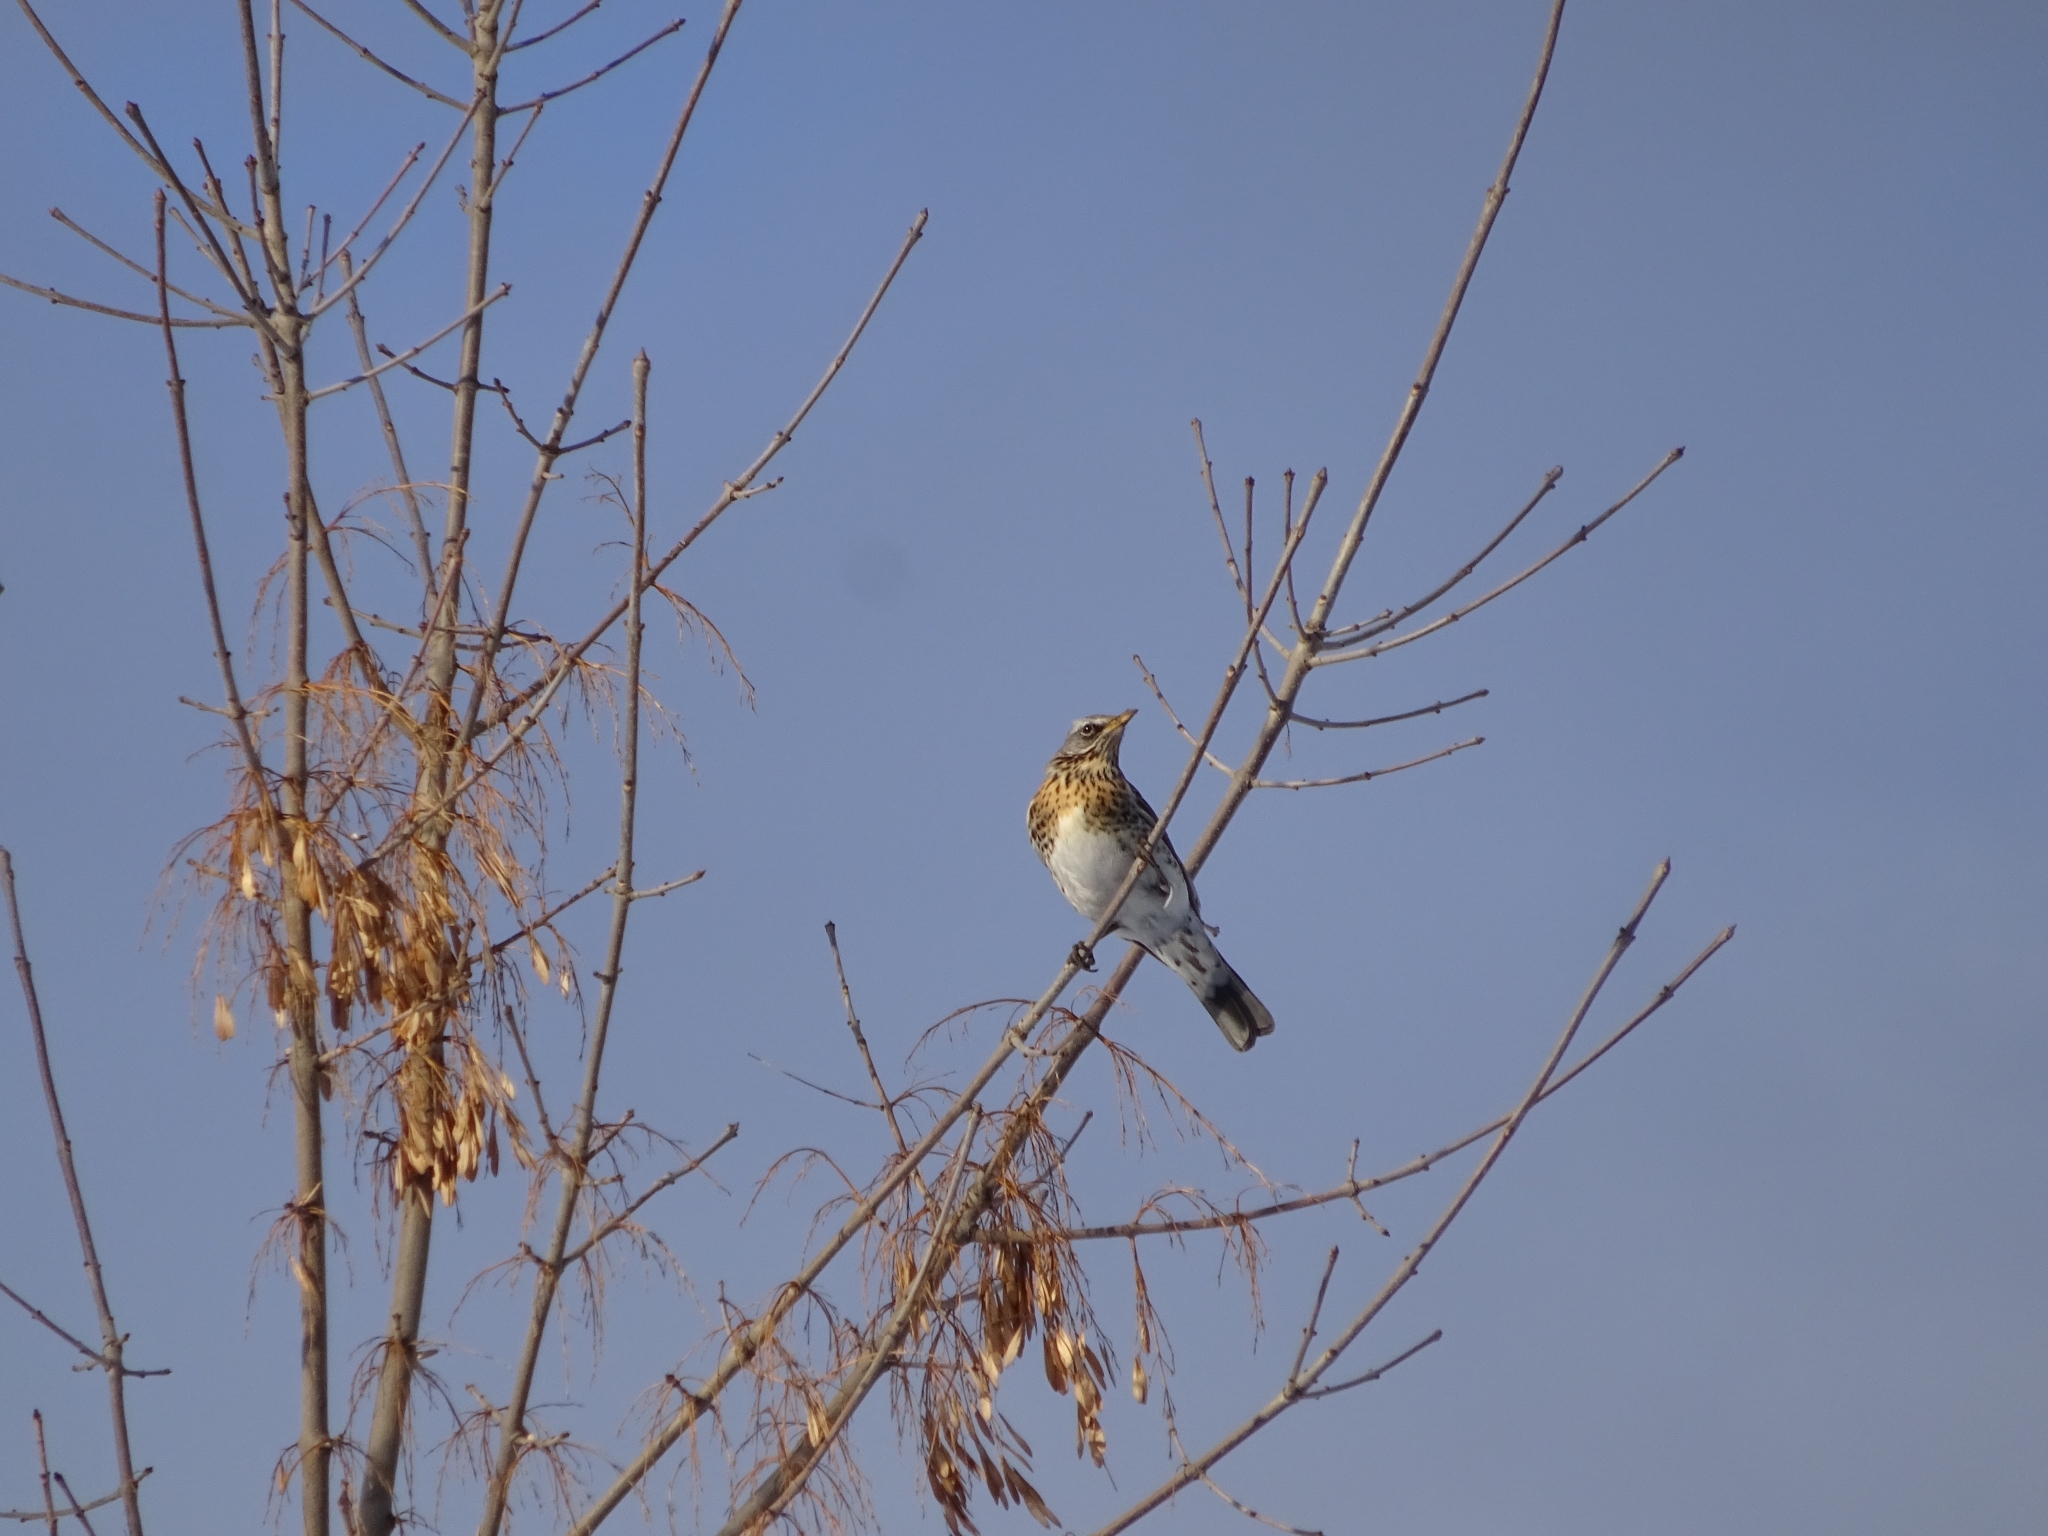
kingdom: Animalia
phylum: Chordata
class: Aves
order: Passeriformes
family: Turdidae
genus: Turdus
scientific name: Turdus pilaris
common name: Fieldfare
